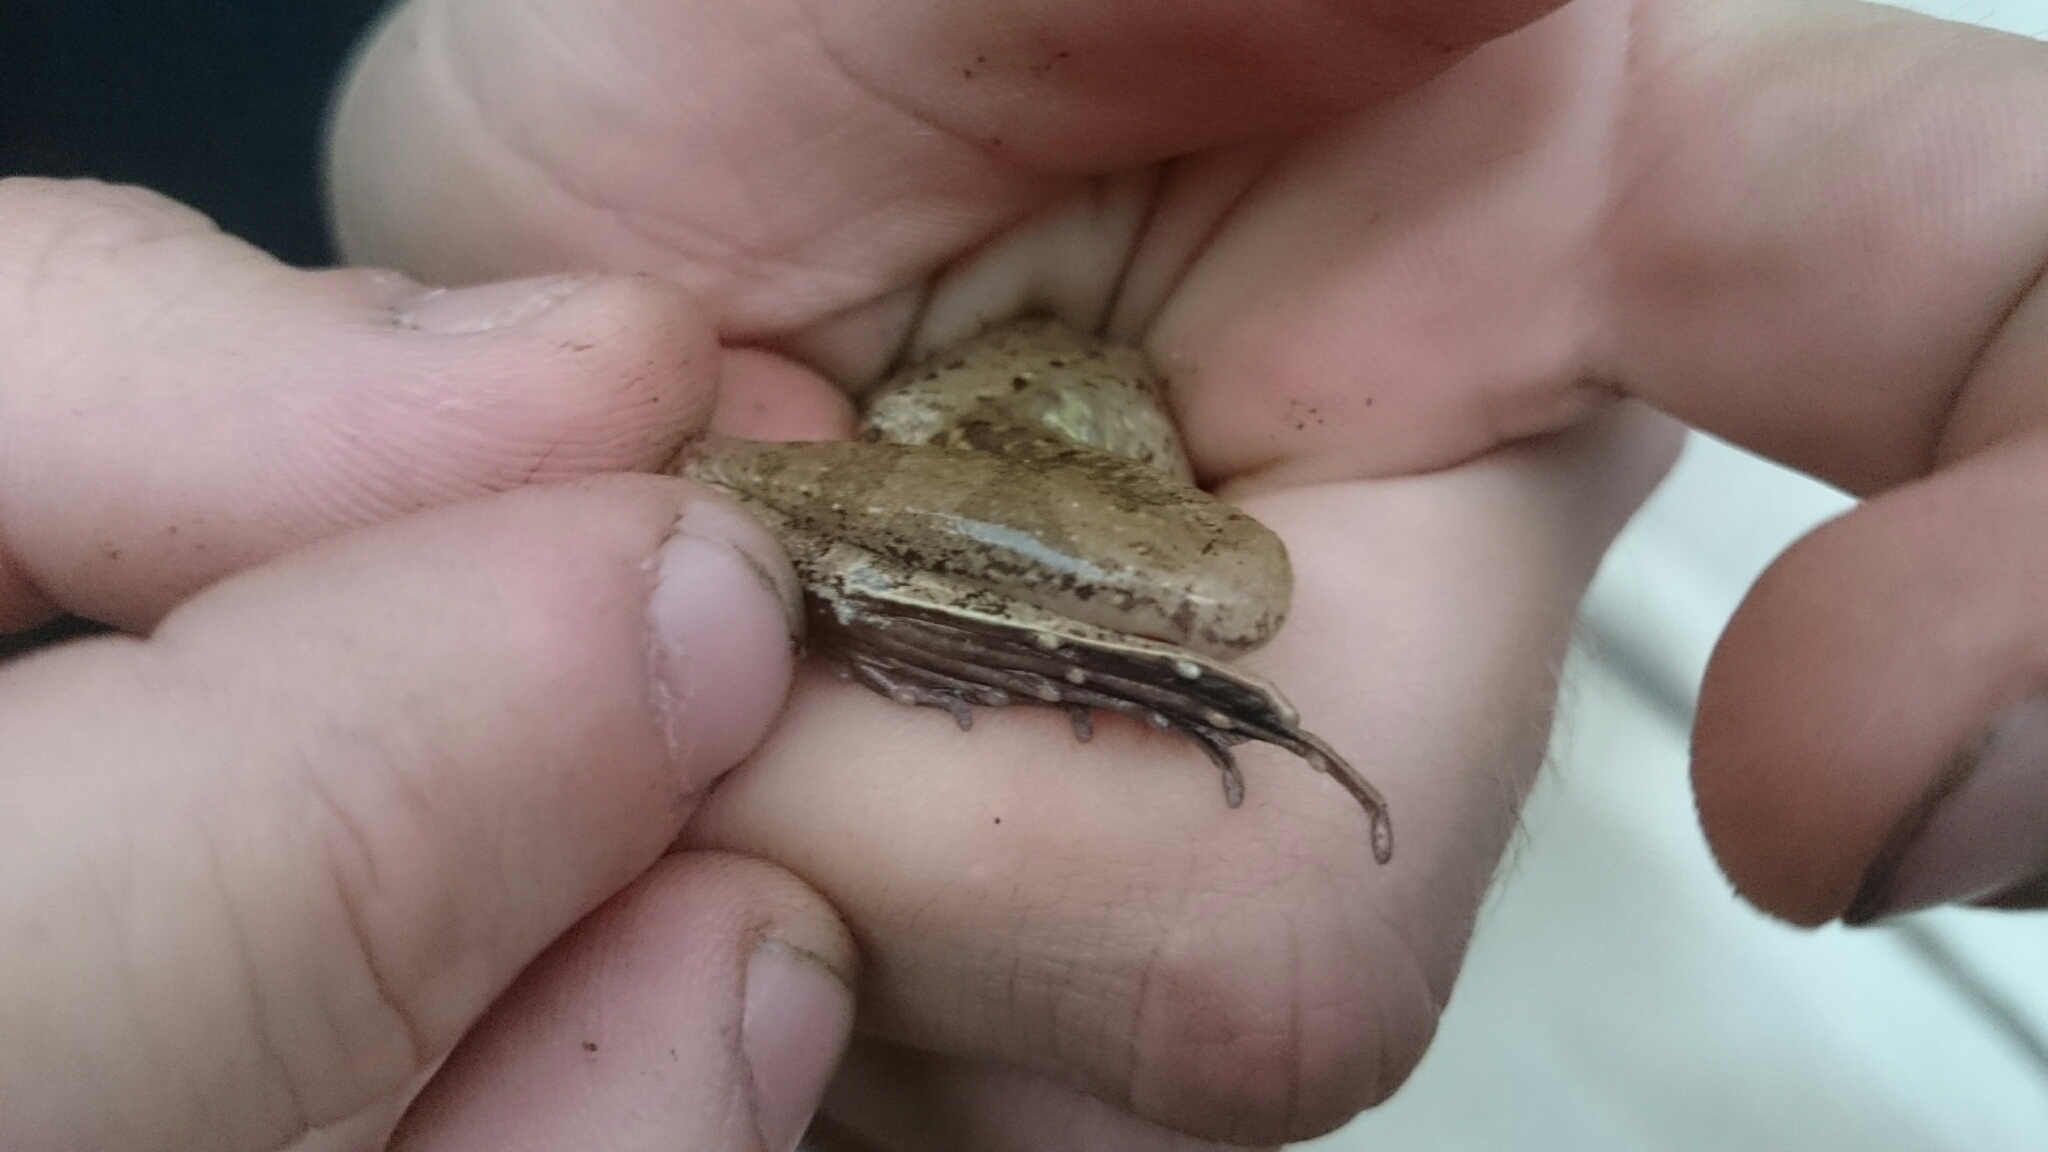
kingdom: Animalia
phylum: Chordata
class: Amphibia
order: Anura
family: Ptychadenidae
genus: Ptychadena
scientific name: Ptychadena anchietae
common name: Anchieta's ridged frog
